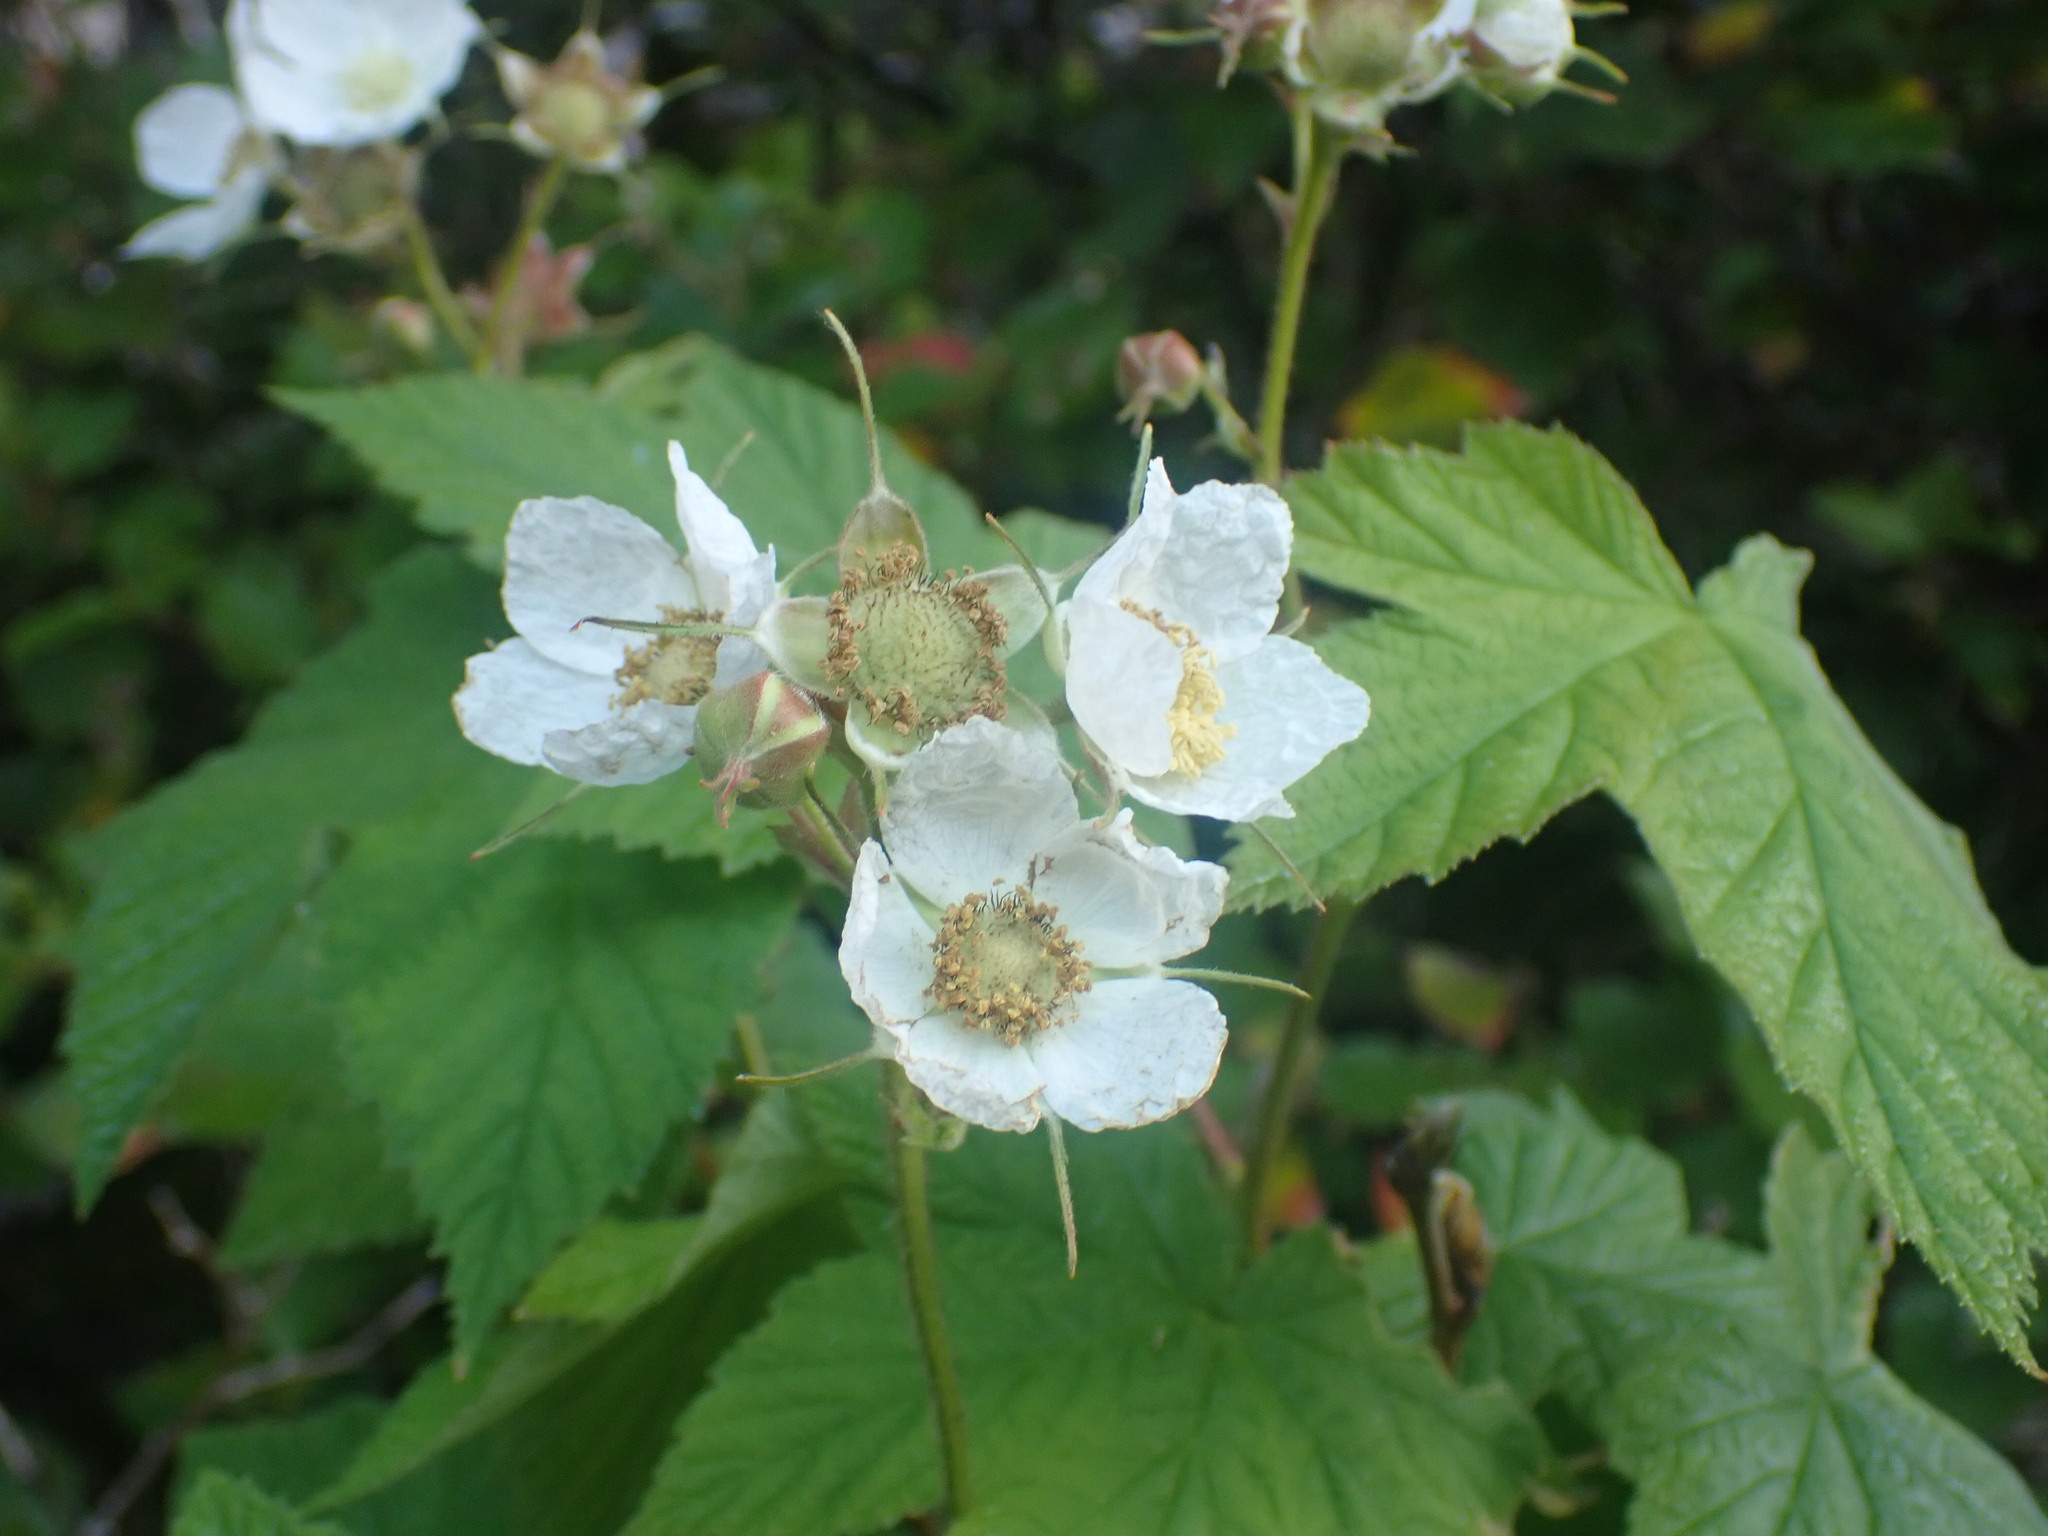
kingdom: Plantae
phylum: Tracheophyta
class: Magnoliopsida
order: Rosales
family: Rosaceae
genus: Rubus
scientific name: Rubus parviflorus
